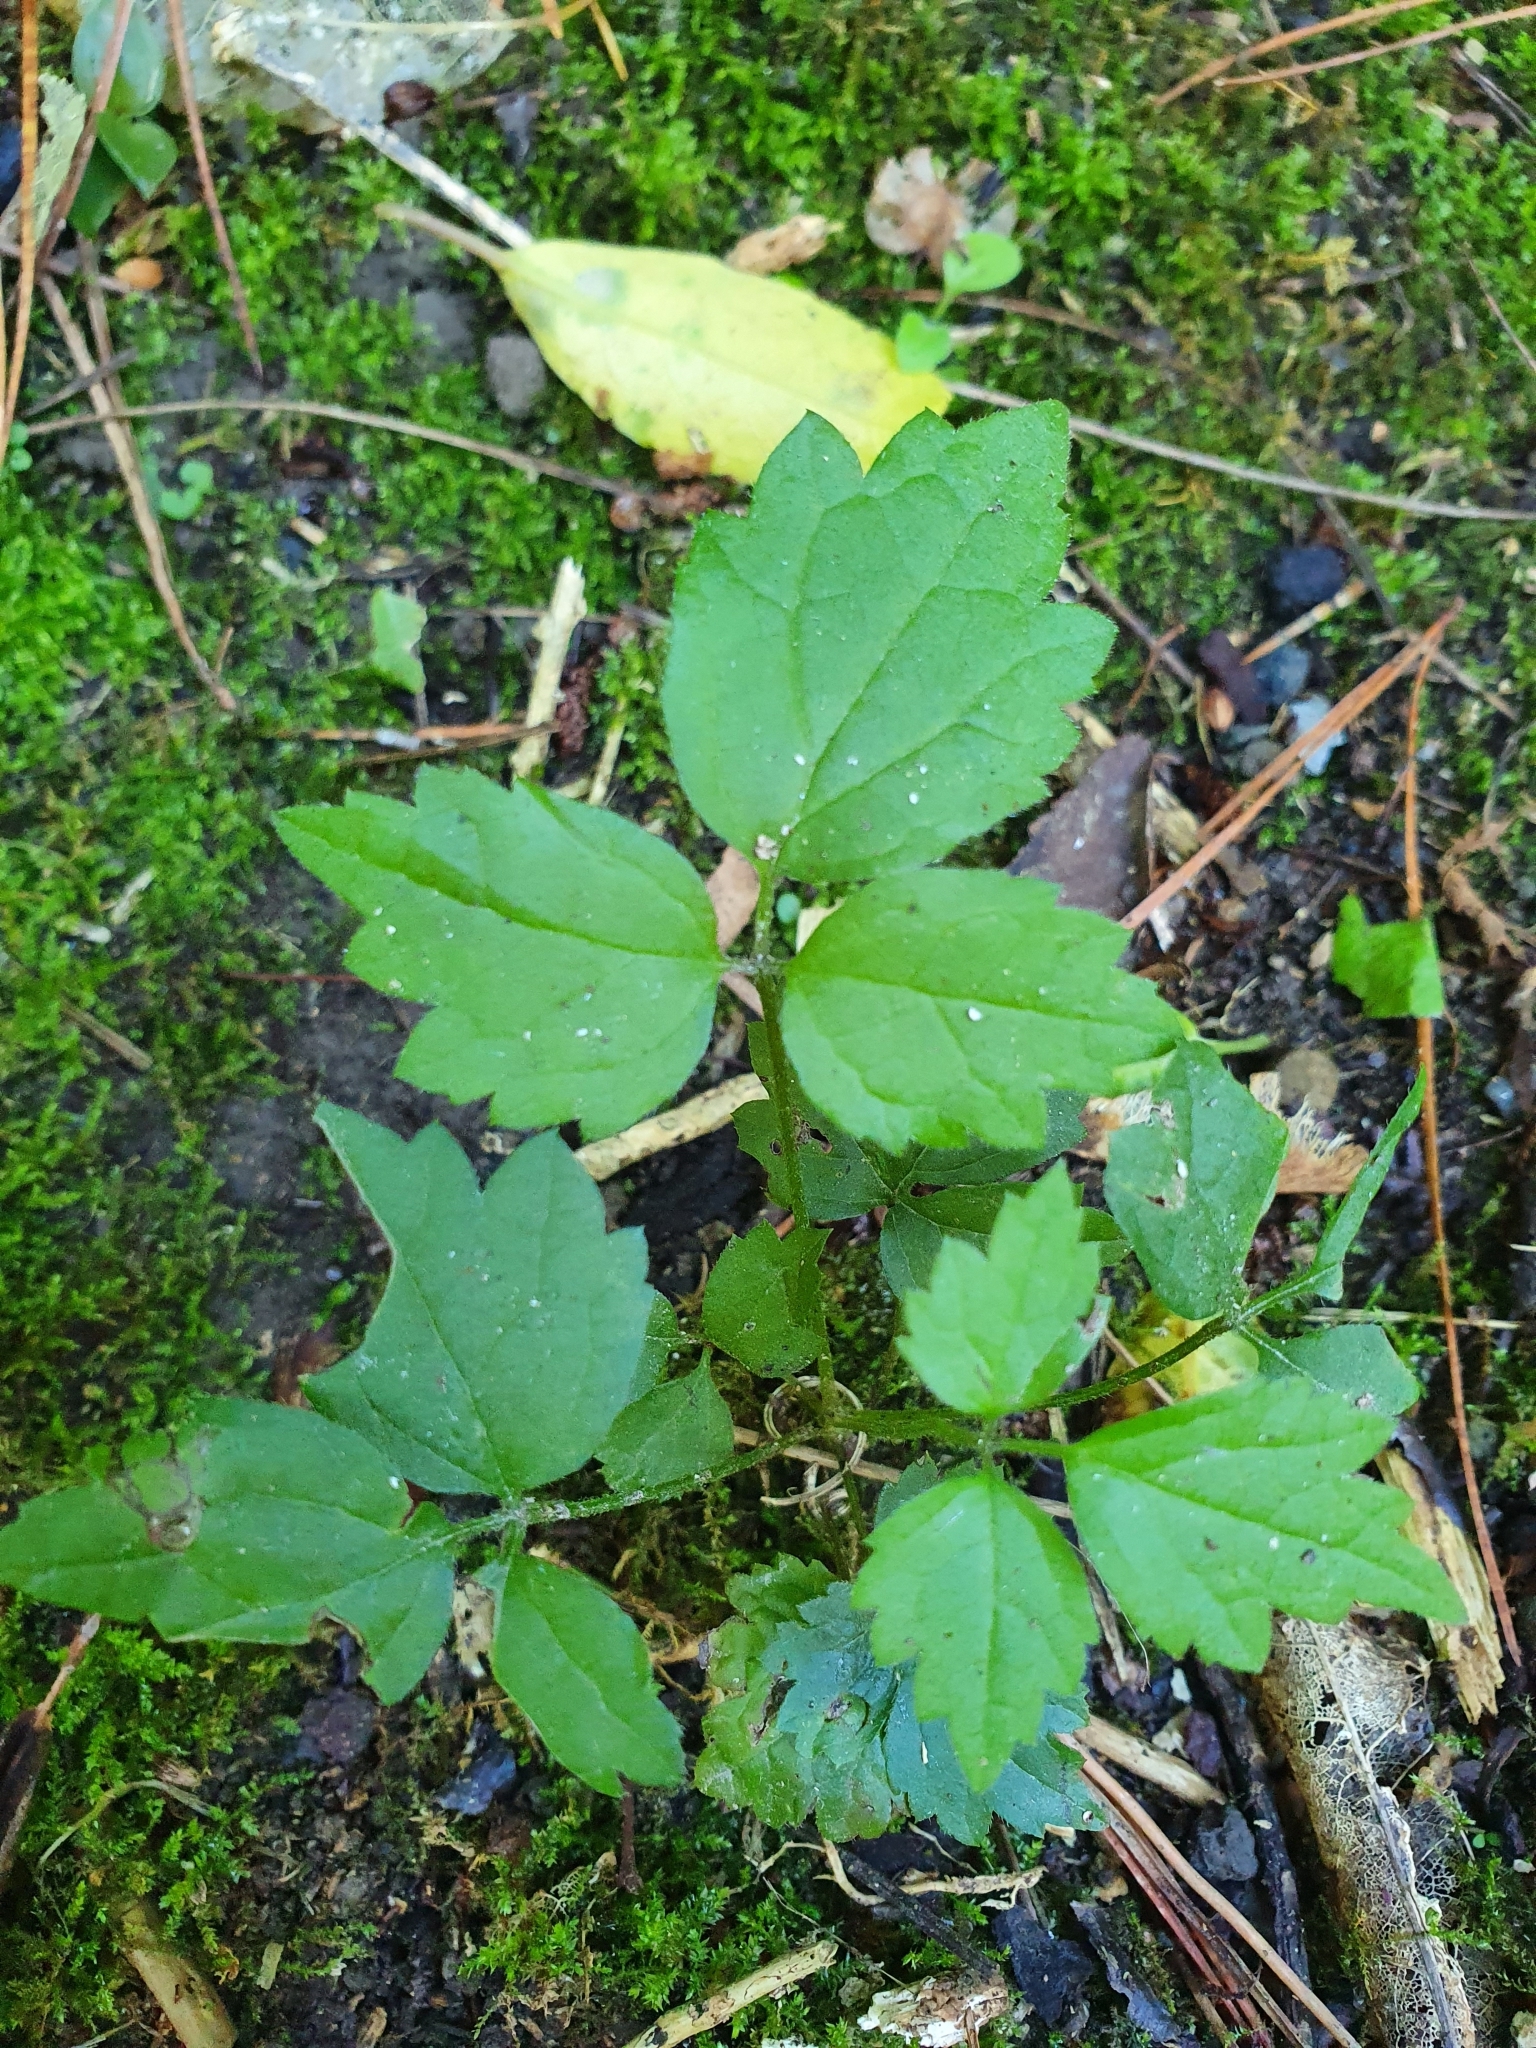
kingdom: Plantae
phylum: Tracheophyta
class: Magnoliopsida
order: Ranunculales
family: Ranunculaceae
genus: Clematis
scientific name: Clematis vitalba
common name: Evergreen clematis
